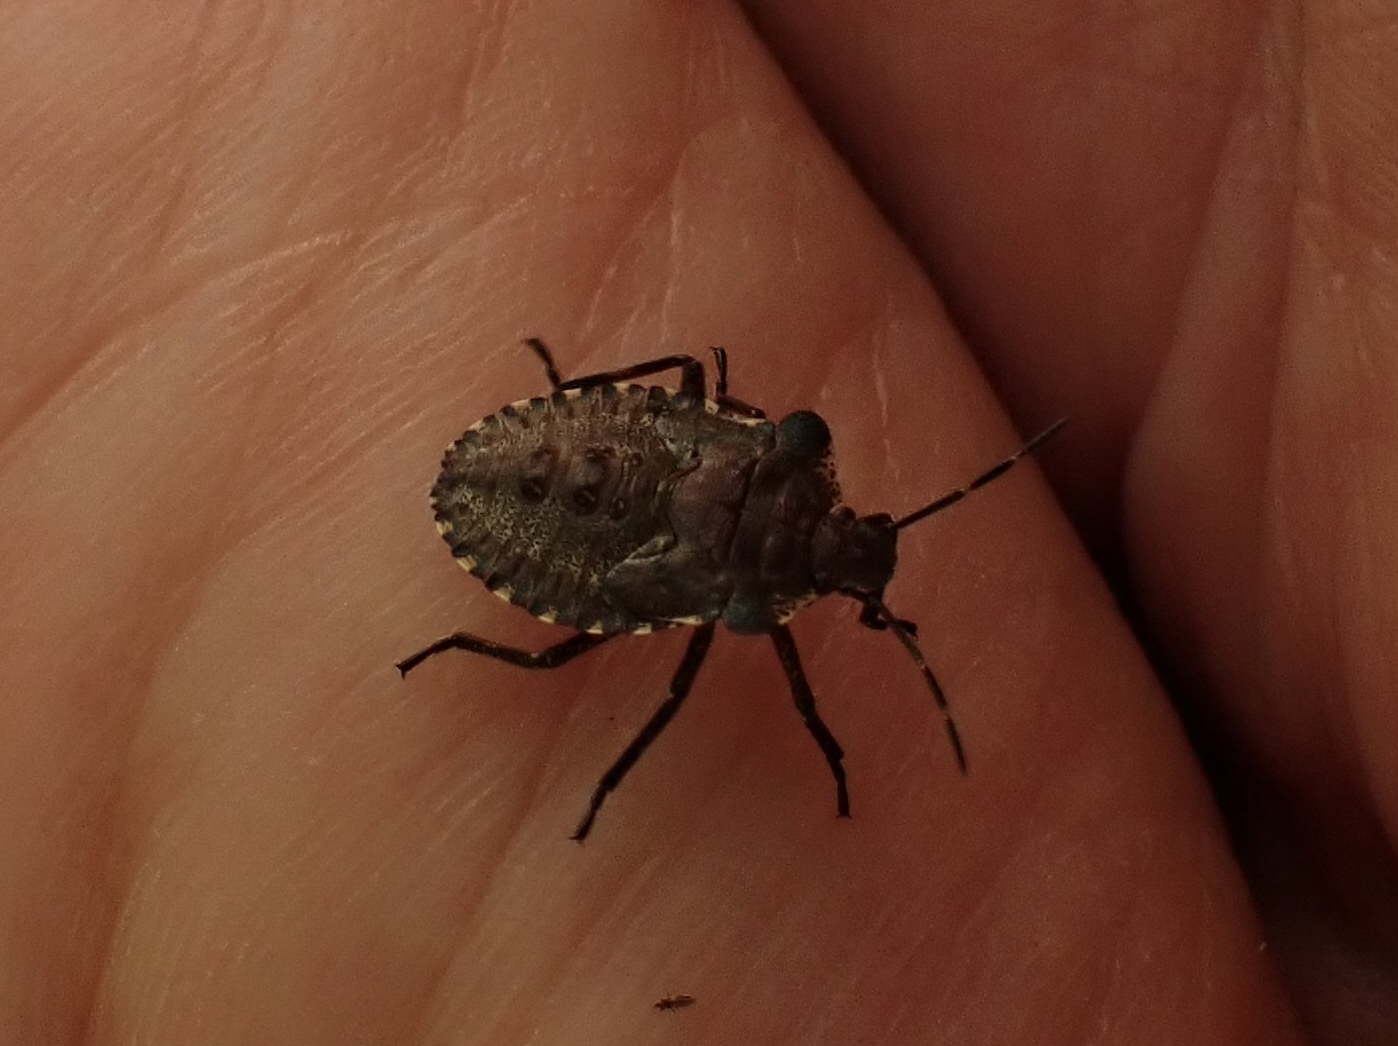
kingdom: Animalia
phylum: Arthropoda
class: Insecta
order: Hemiptera
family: Pentatomidae
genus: Pentatoma
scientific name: Pentatoma rufipes
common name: Forest bug
